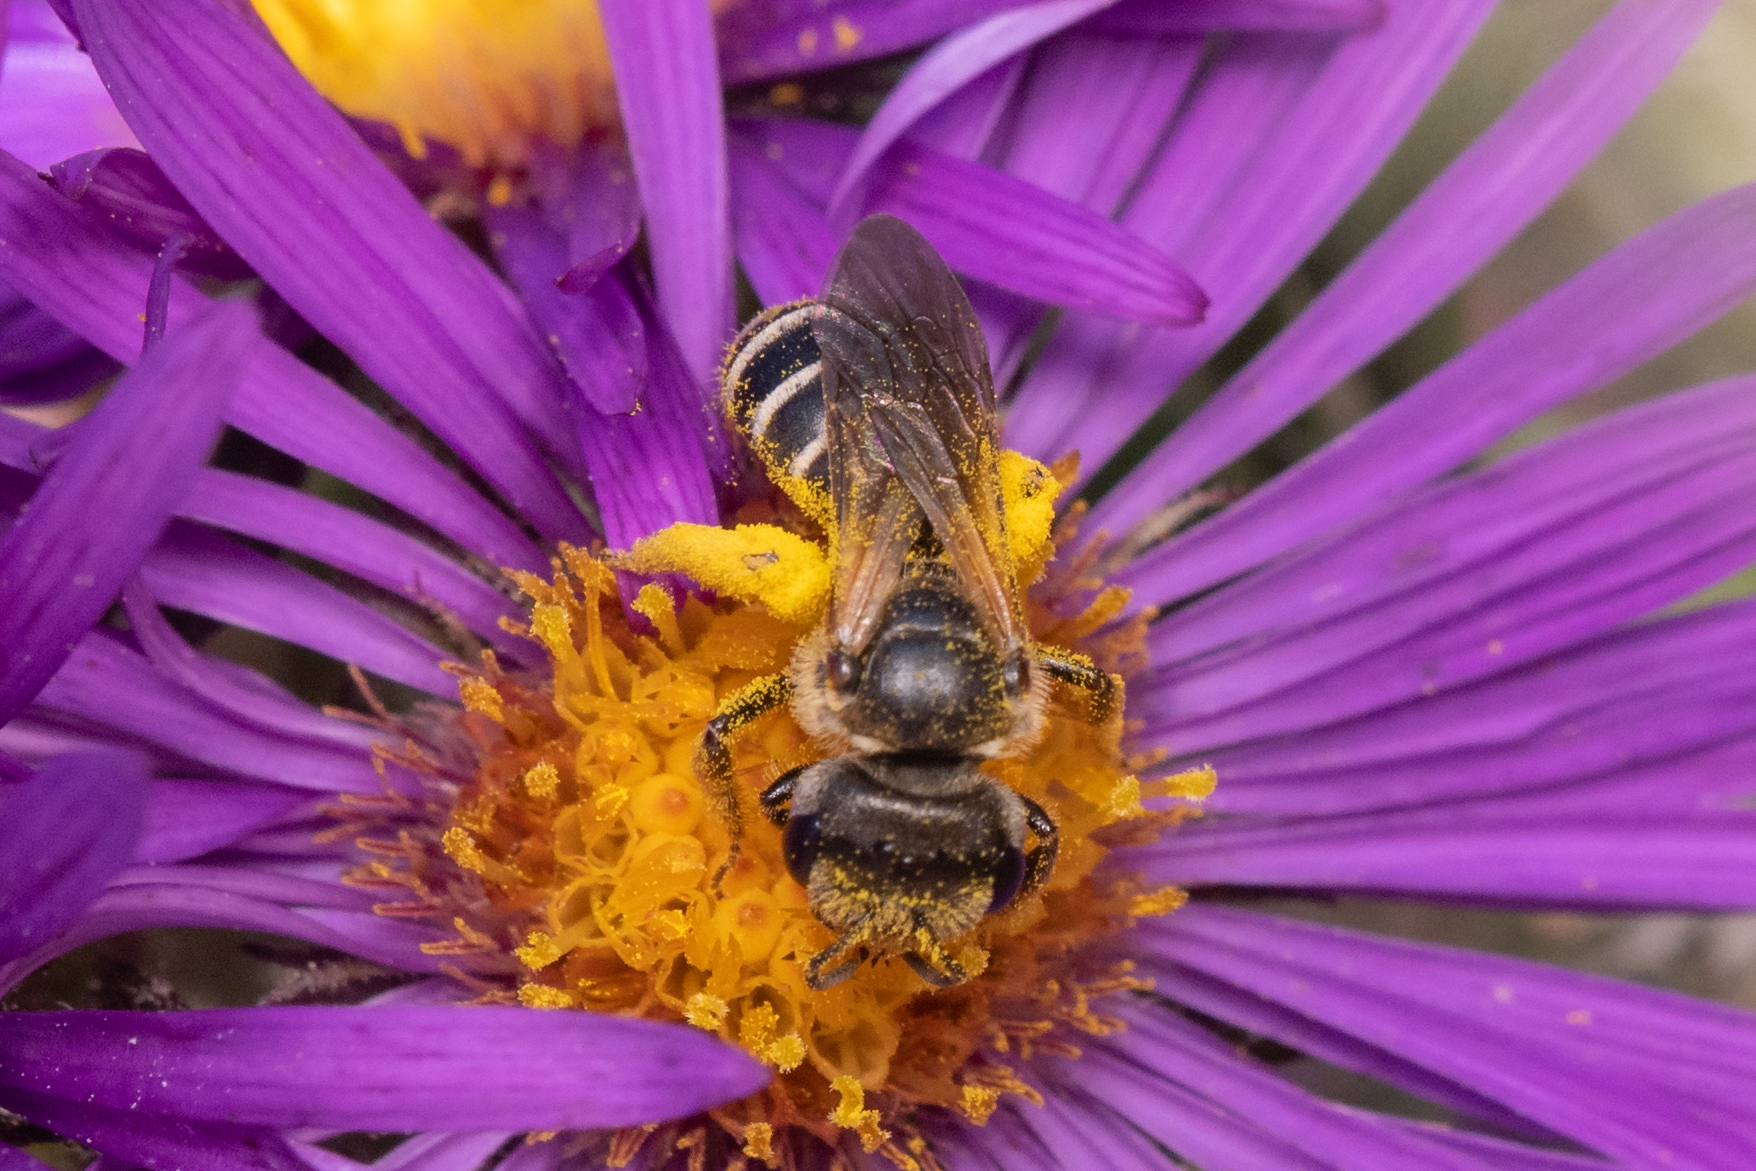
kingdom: Animalia
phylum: Arthropoda
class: Insecta
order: Hymenoptera
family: Halictidae
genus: Halictus
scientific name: Halictus ligatus
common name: Ligated furrow bee
